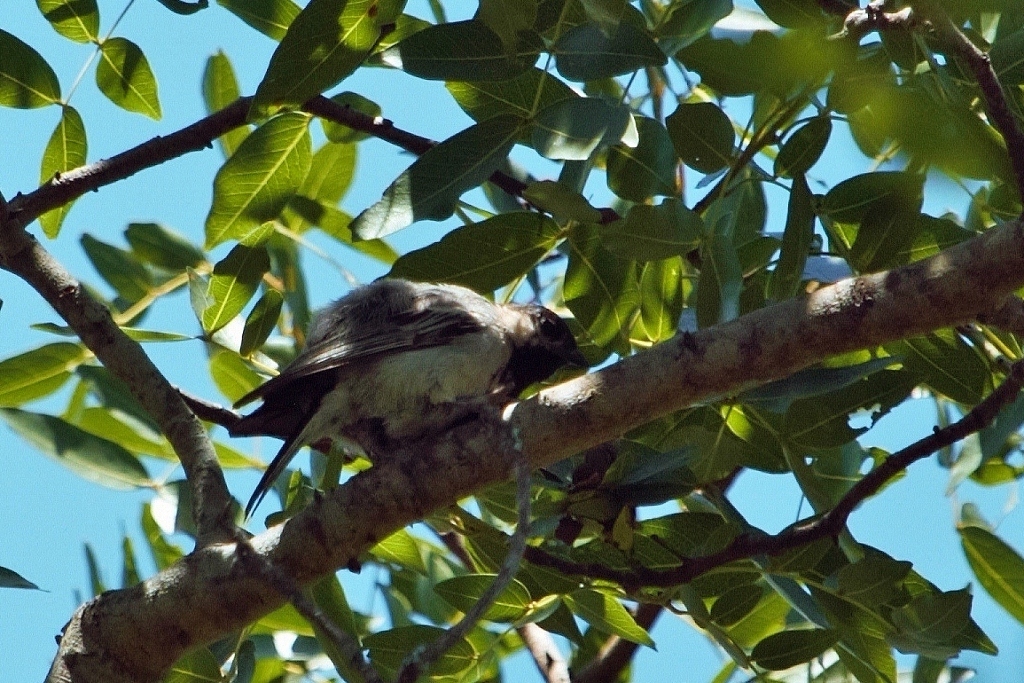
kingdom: Animalia
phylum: Chordata
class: Aves
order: Passeriformes
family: Paridae
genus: Parus
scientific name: Parus griseiventris
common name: Miombo tit
